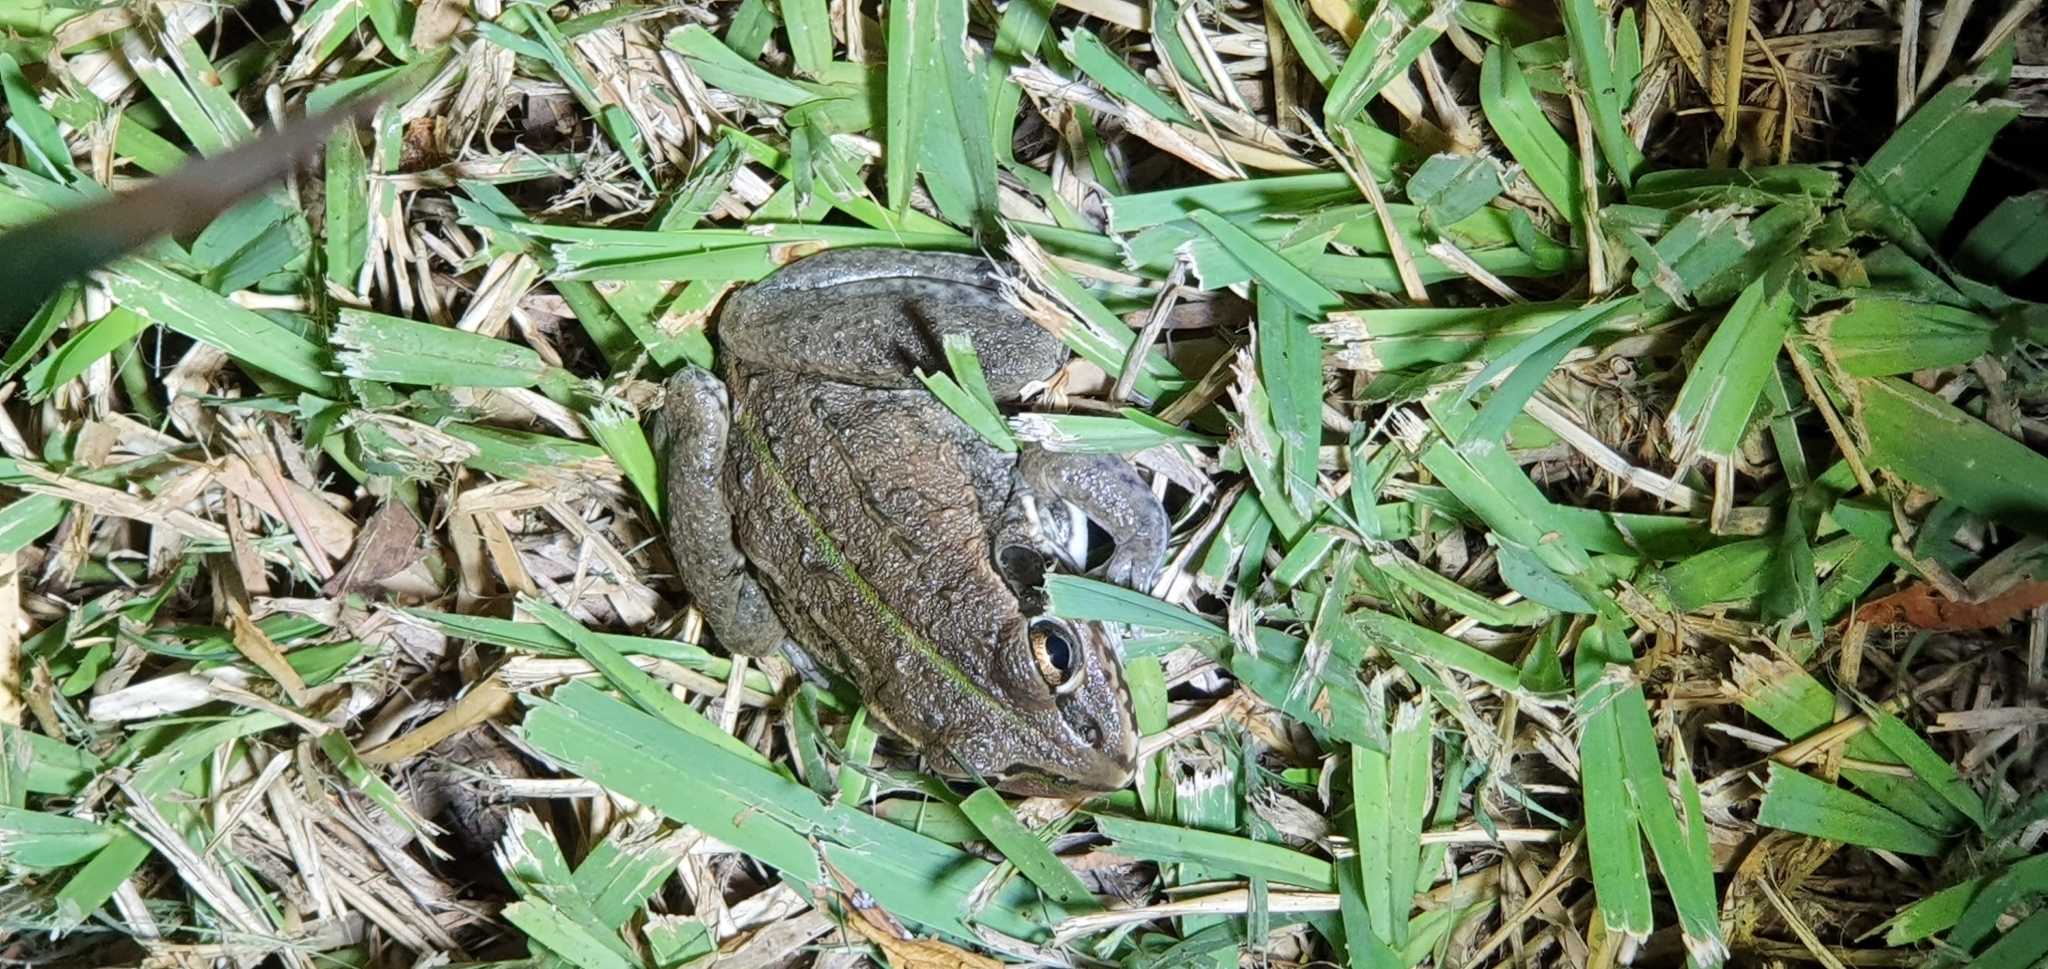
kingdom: Animalia
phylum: Chordata
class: Amphibia
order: Anura
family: Pelodryadidae
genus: Ranoidea
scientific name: Ranoidea alboguttata
